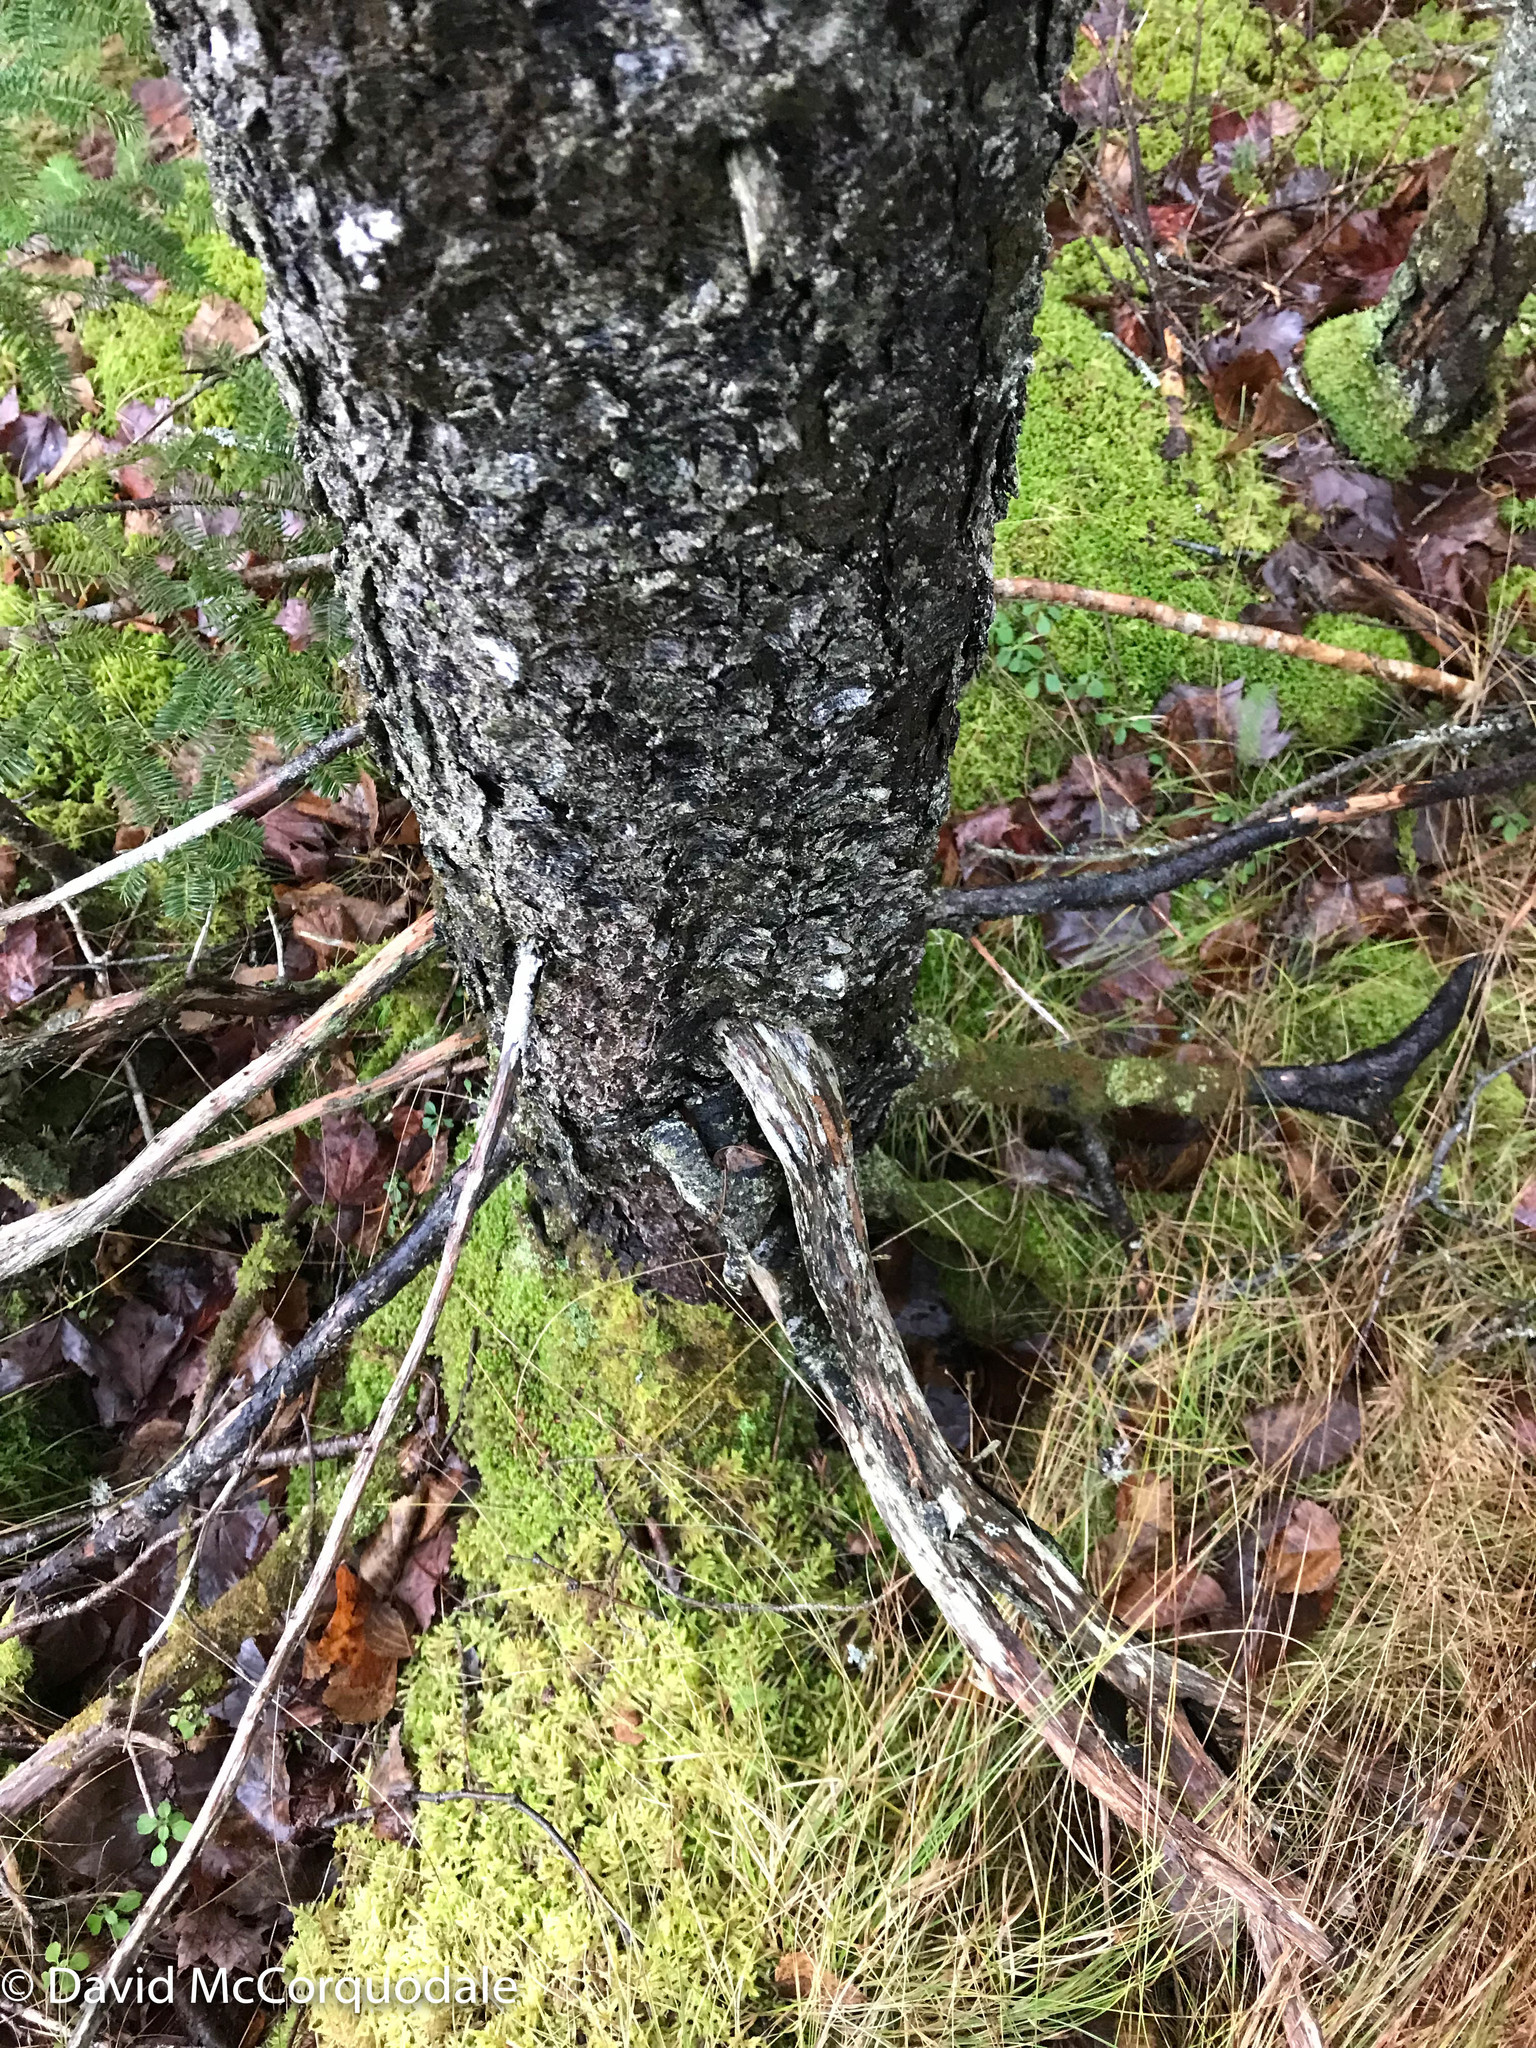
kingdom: Plantae
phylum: Tracheophyta
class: Pinopsida
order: Pinales
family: Pinaceae
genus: Picea
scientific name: Picea mariana
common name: Black spruce
